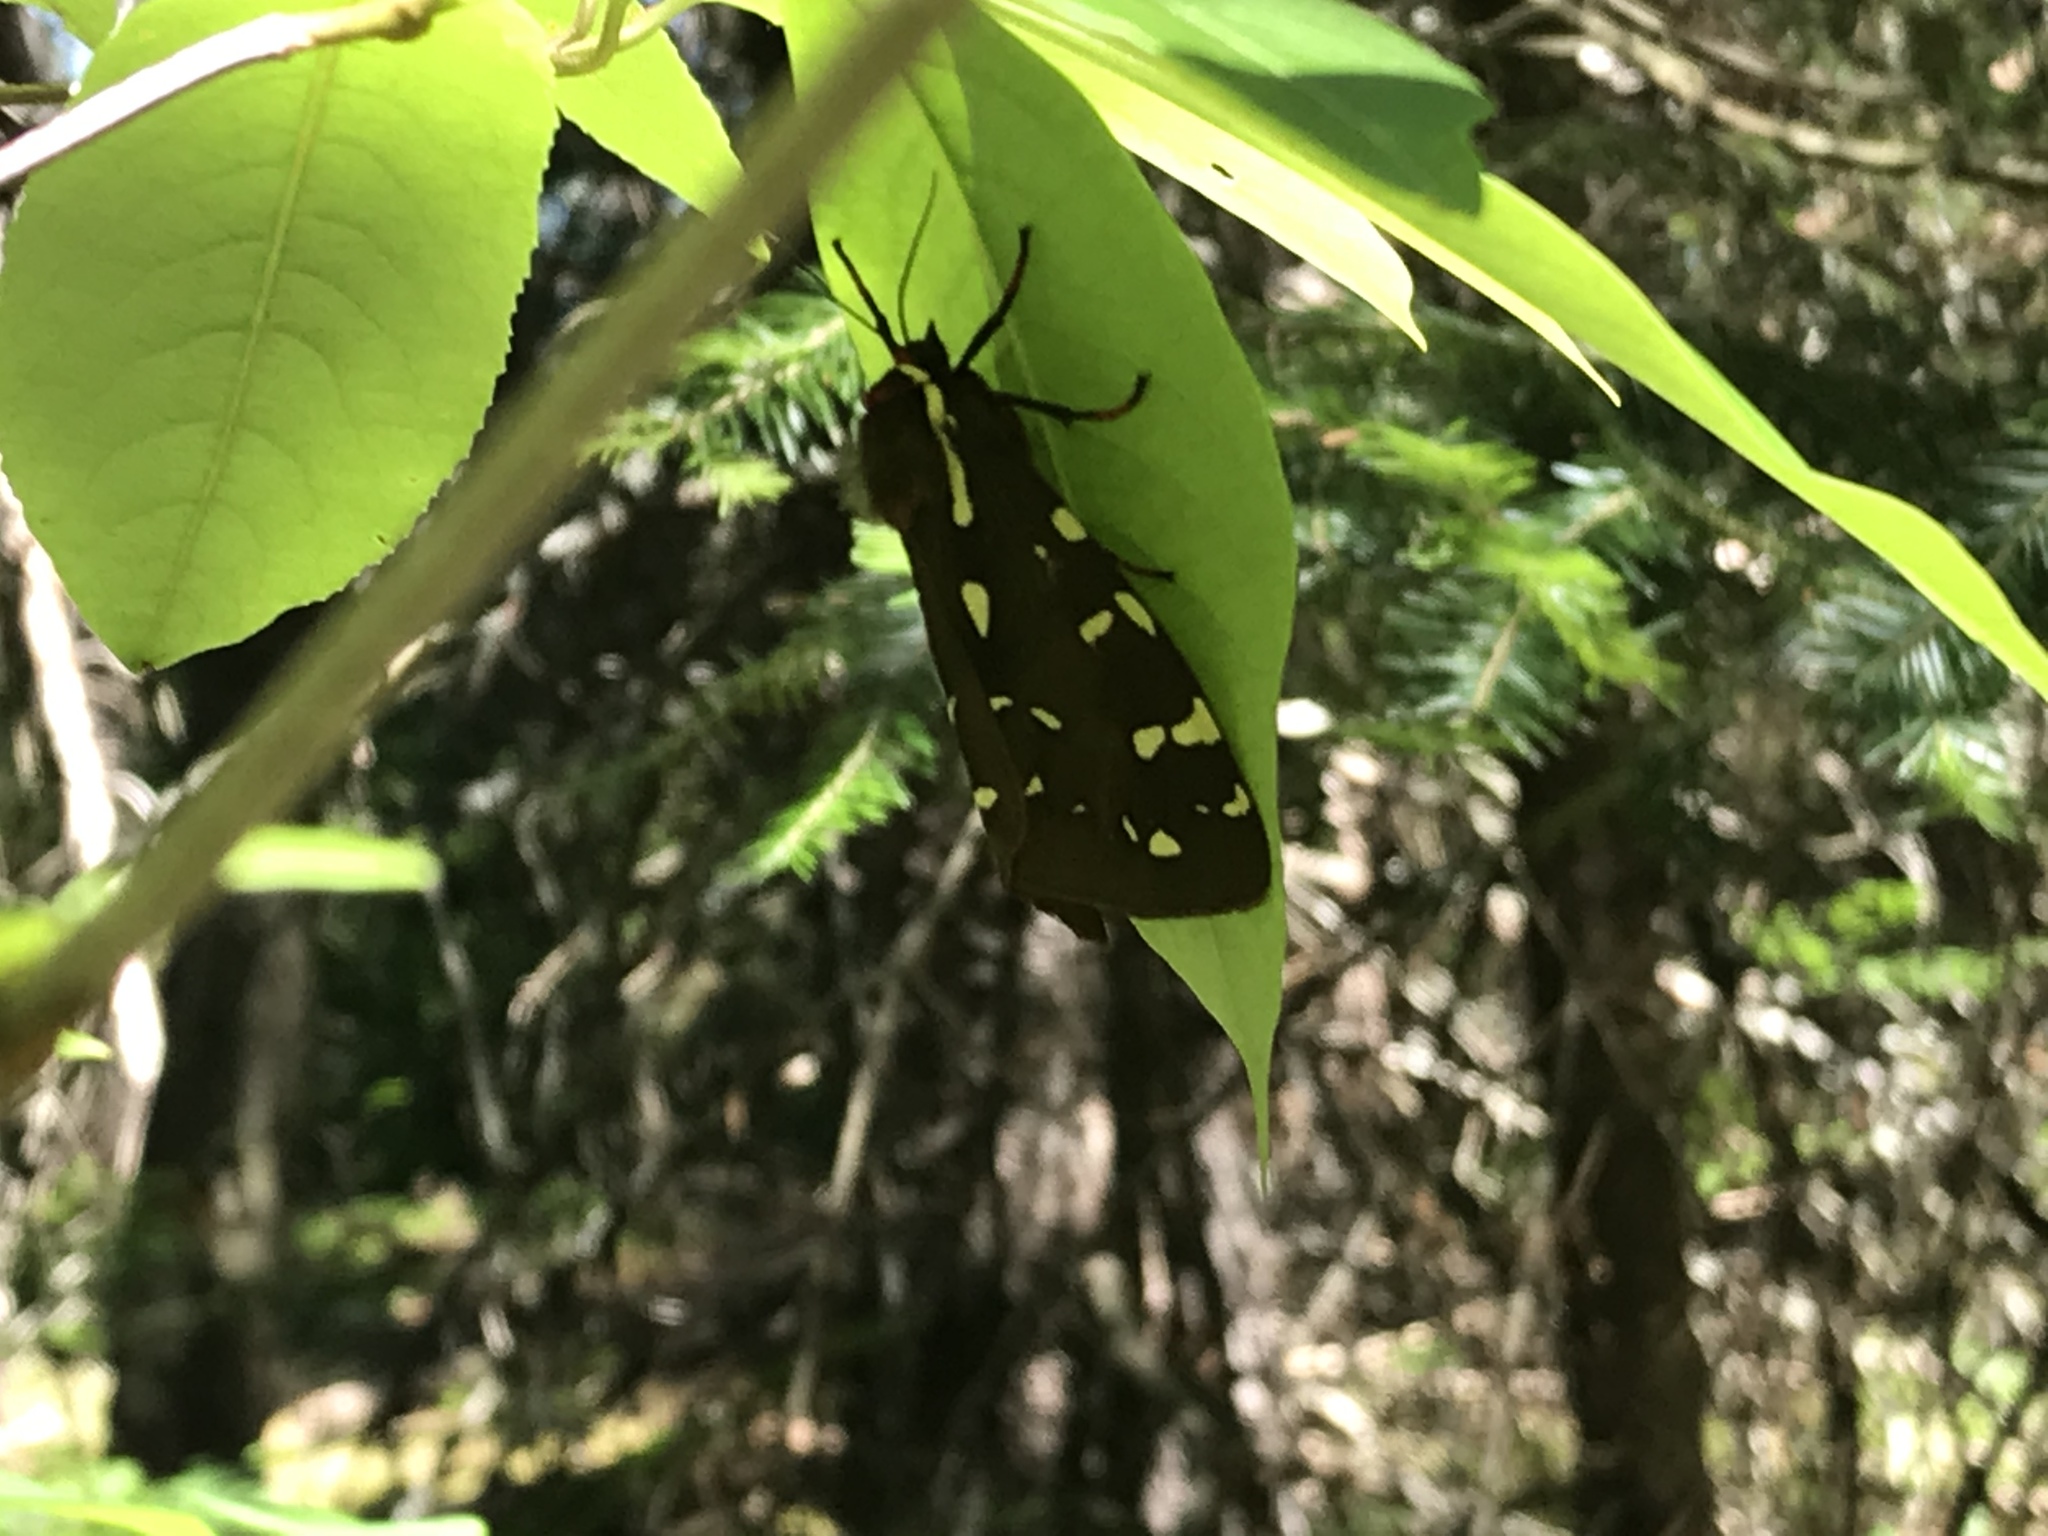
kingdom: Animalia
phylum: Arthropoda
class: Insecta
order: Lepidoptera
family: Erebidae
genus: Arctia
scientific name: Arctia parthenos
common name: St. lawrence tiger moth
